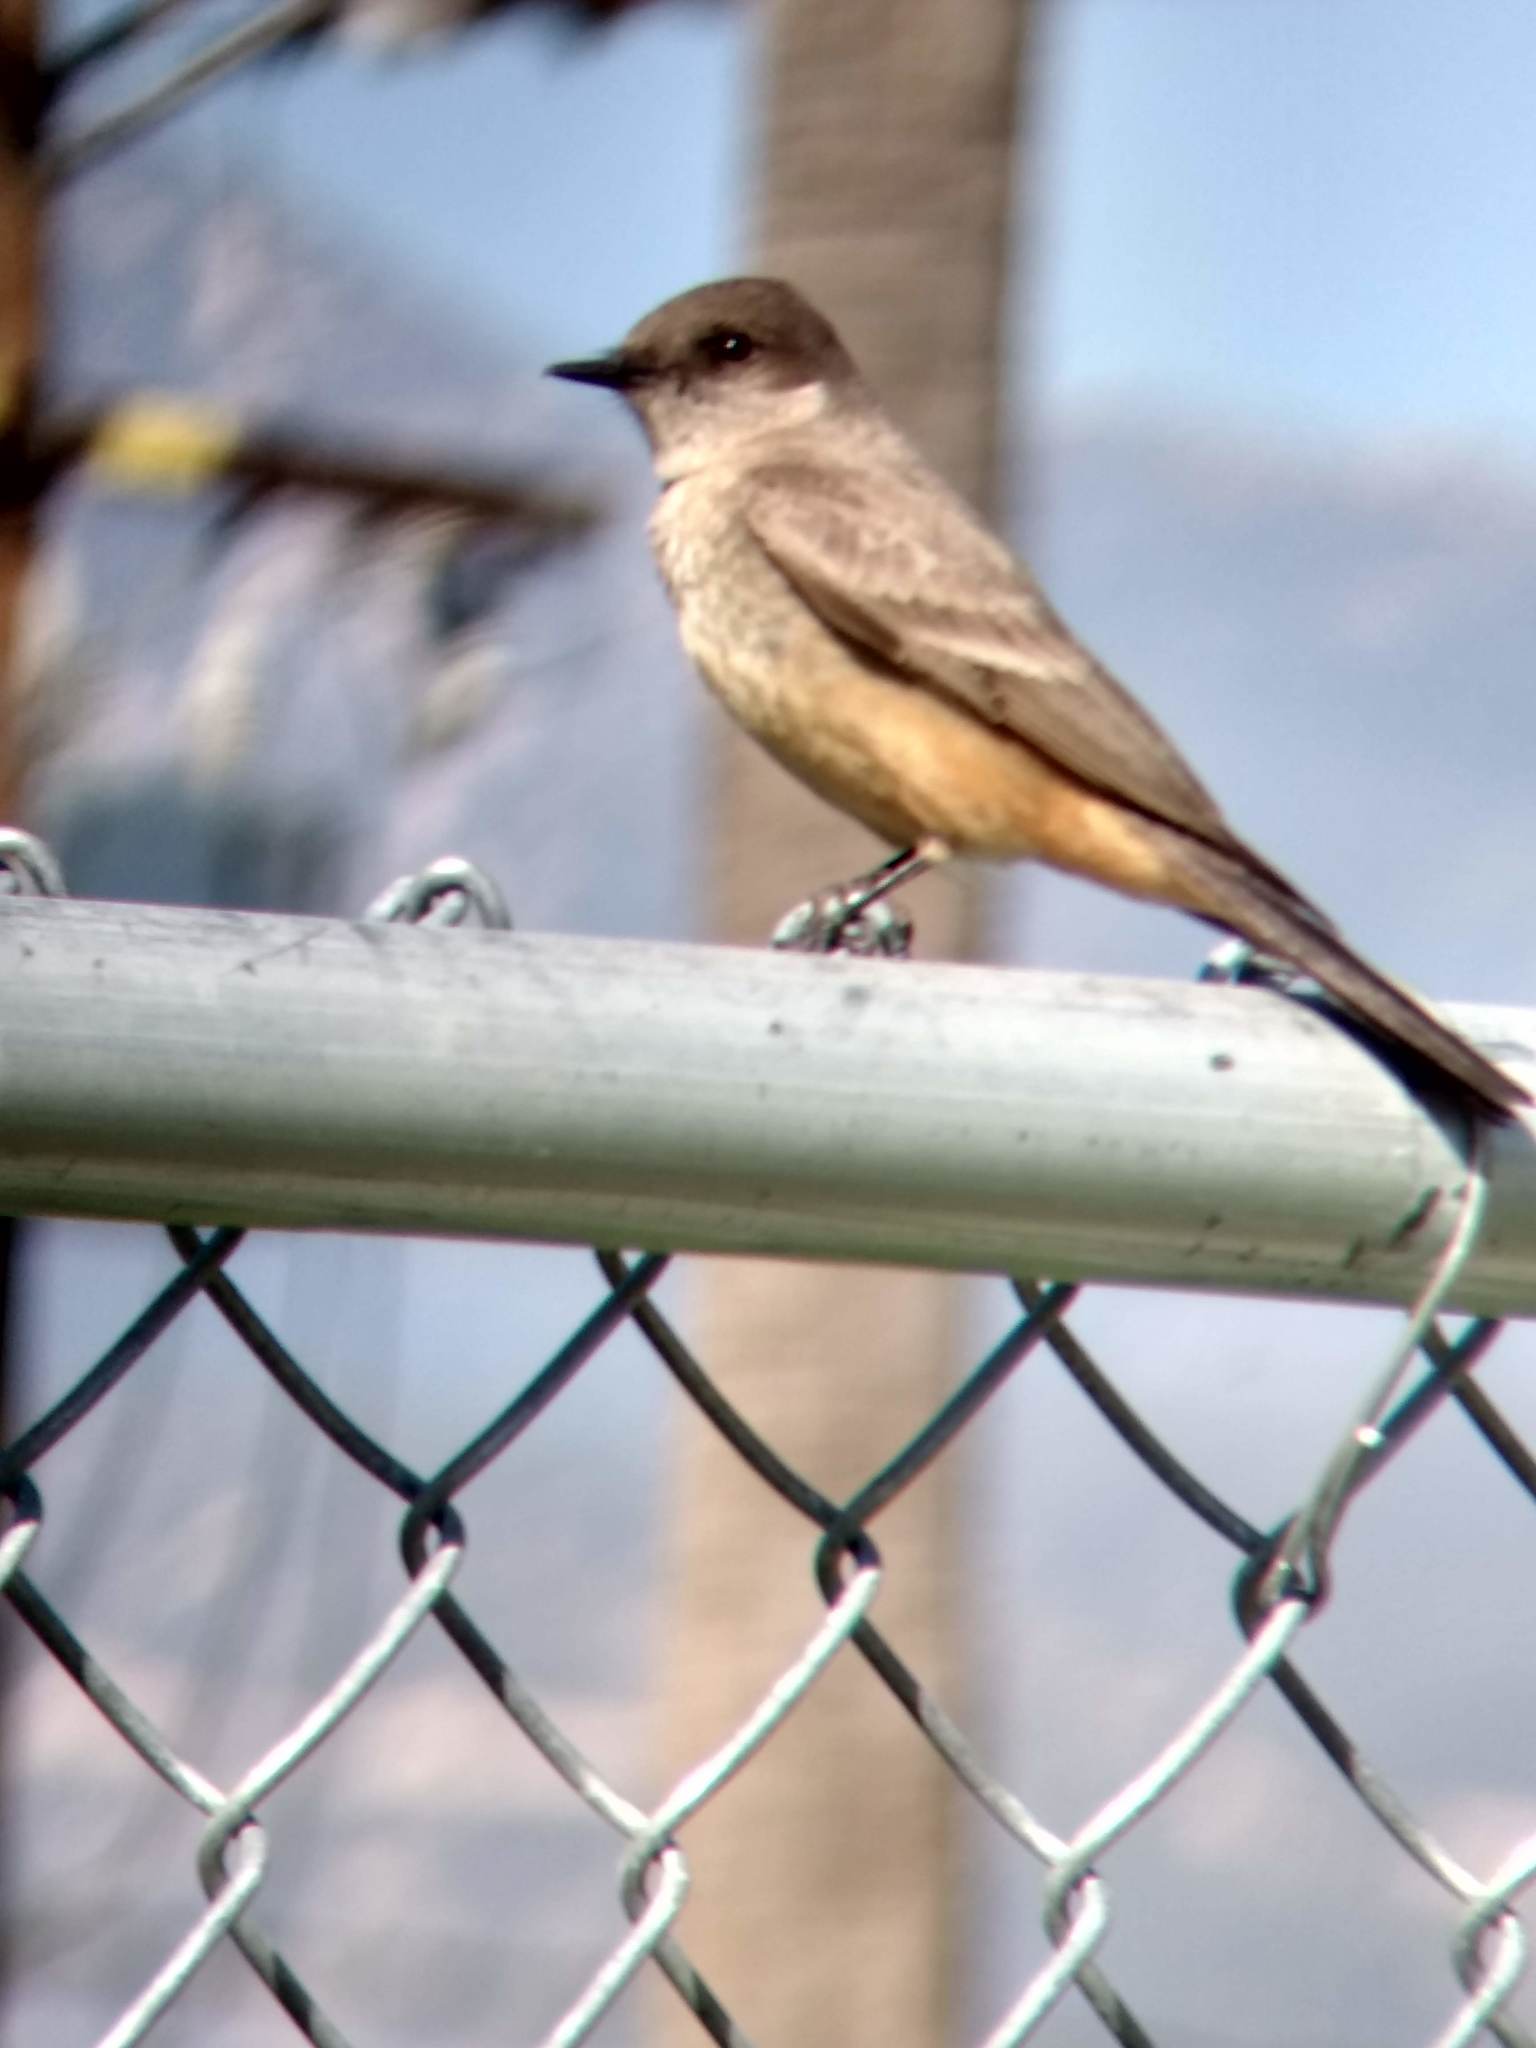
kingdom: Animalia
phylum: Chordata
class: Aves
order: Passeriformes
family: Tyrannidae
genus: Sayornis
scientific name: Sayornis saya
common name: Say's phoebe
